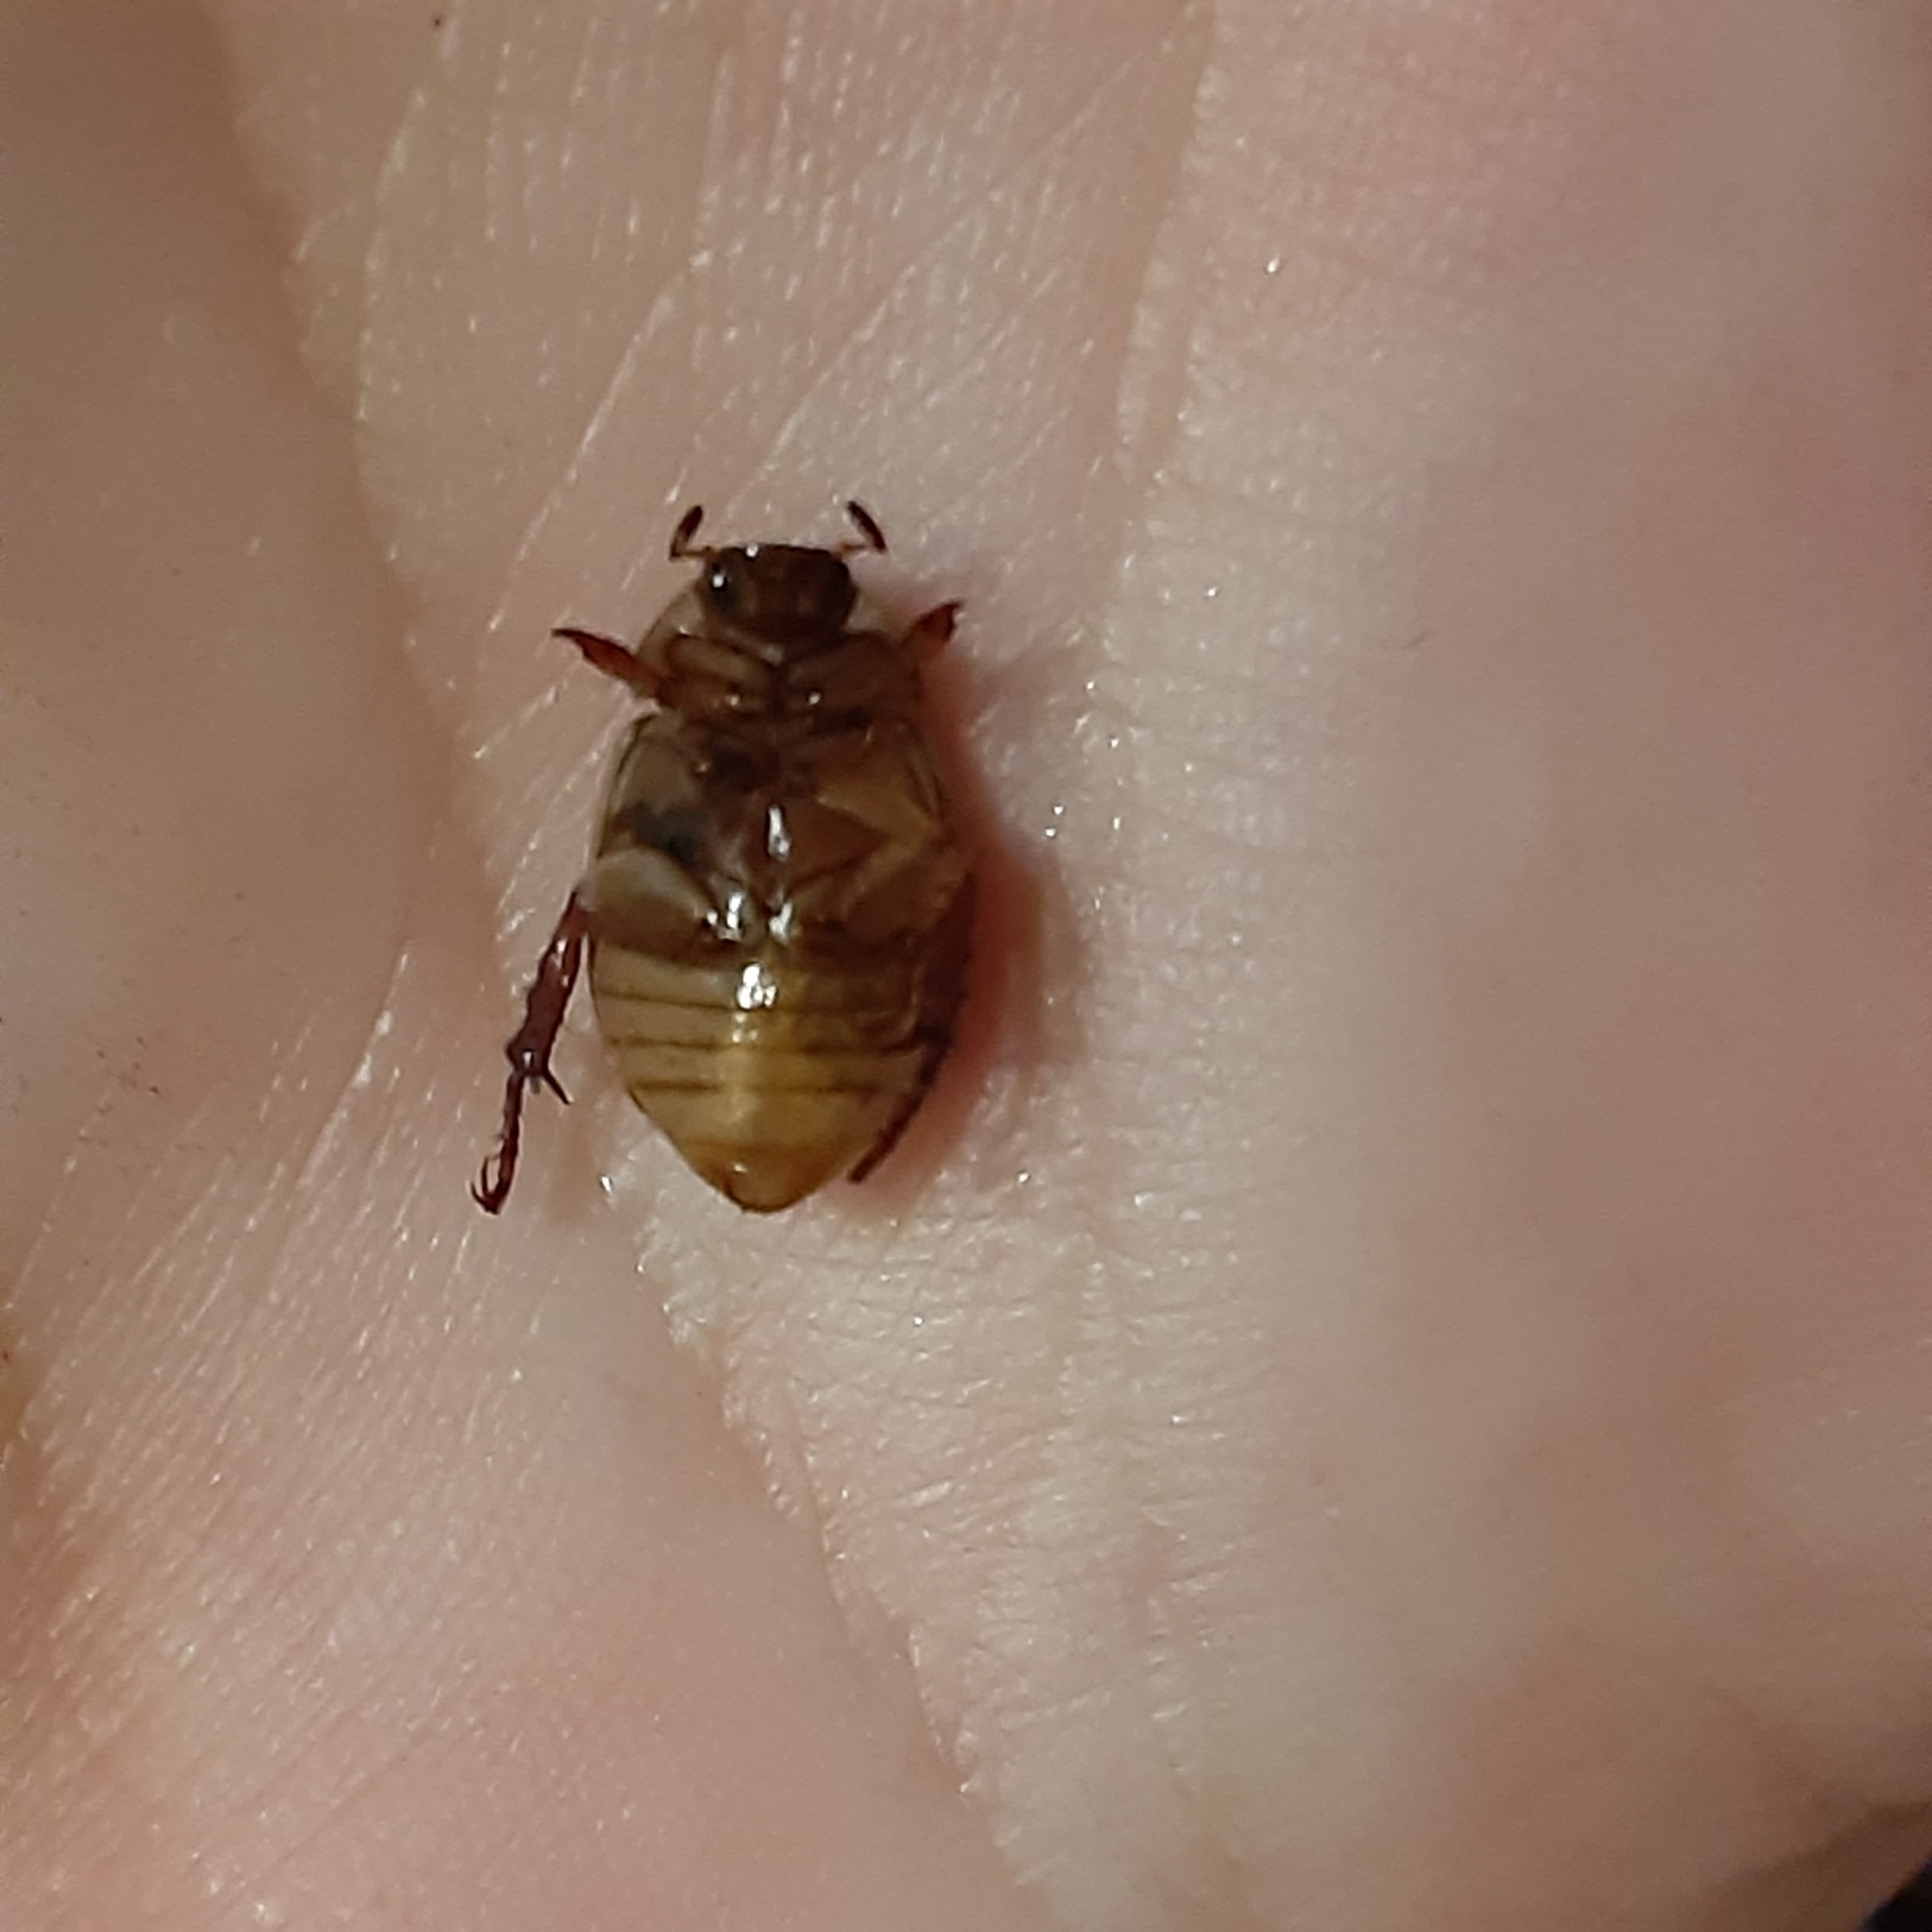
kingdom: Animalia
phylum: Arthropoda
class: Insecta
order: Coleoptera
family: Scarabaeidae
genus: Exomala
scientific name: Exomala orientalis
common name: Oriental beetle
